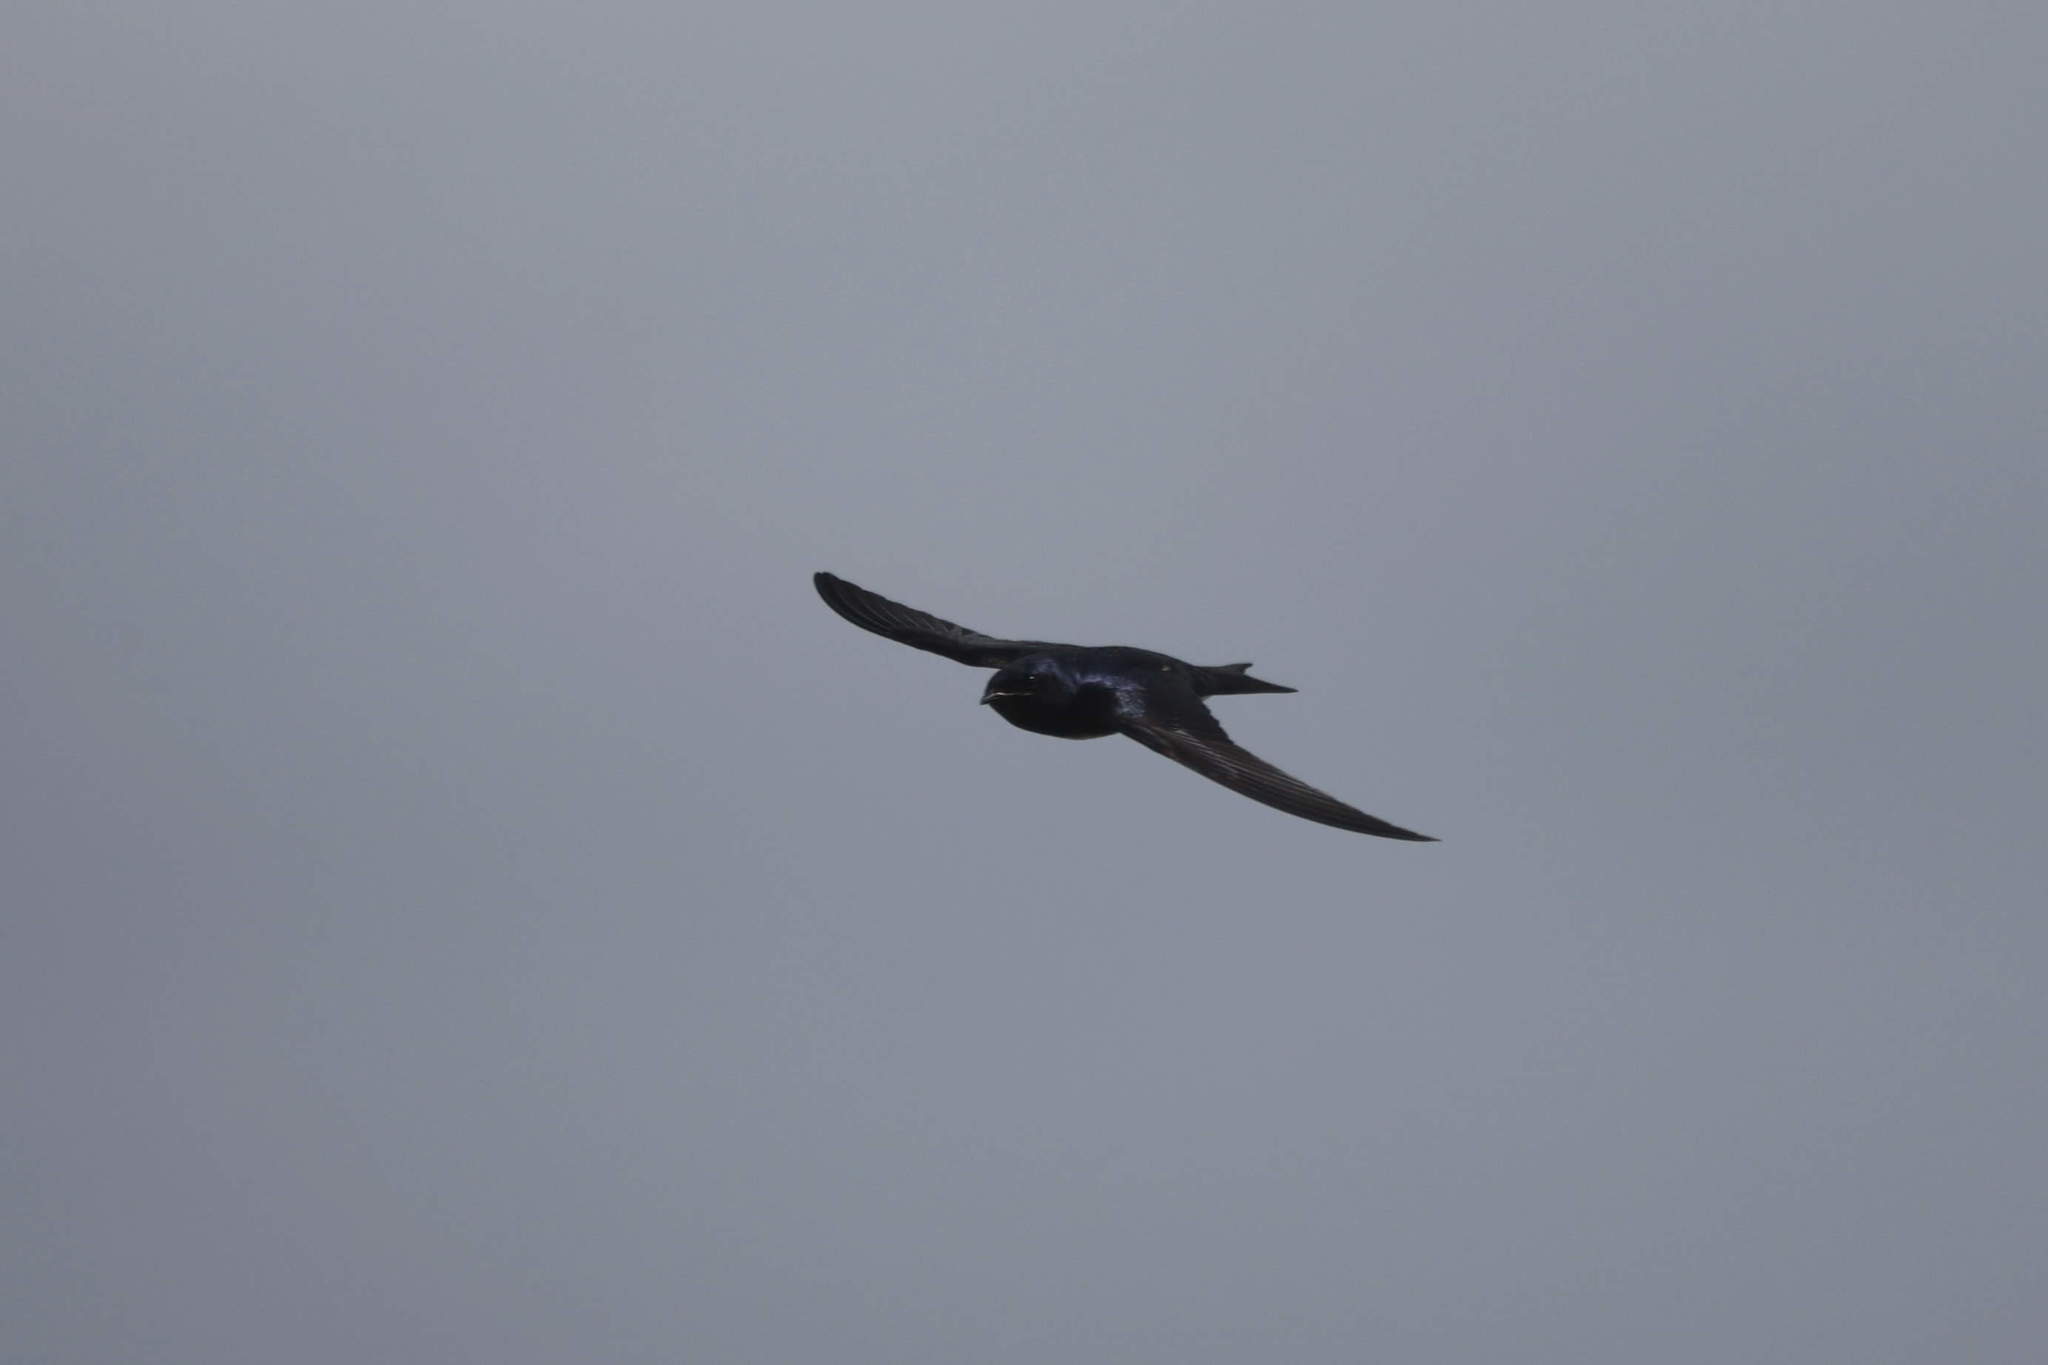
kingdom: Animalia
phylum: Chordata
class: Aves
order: Passeriformes
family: Hirundinidae
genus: Progne
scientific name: Progne dominicensis
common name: Caribbean martin
